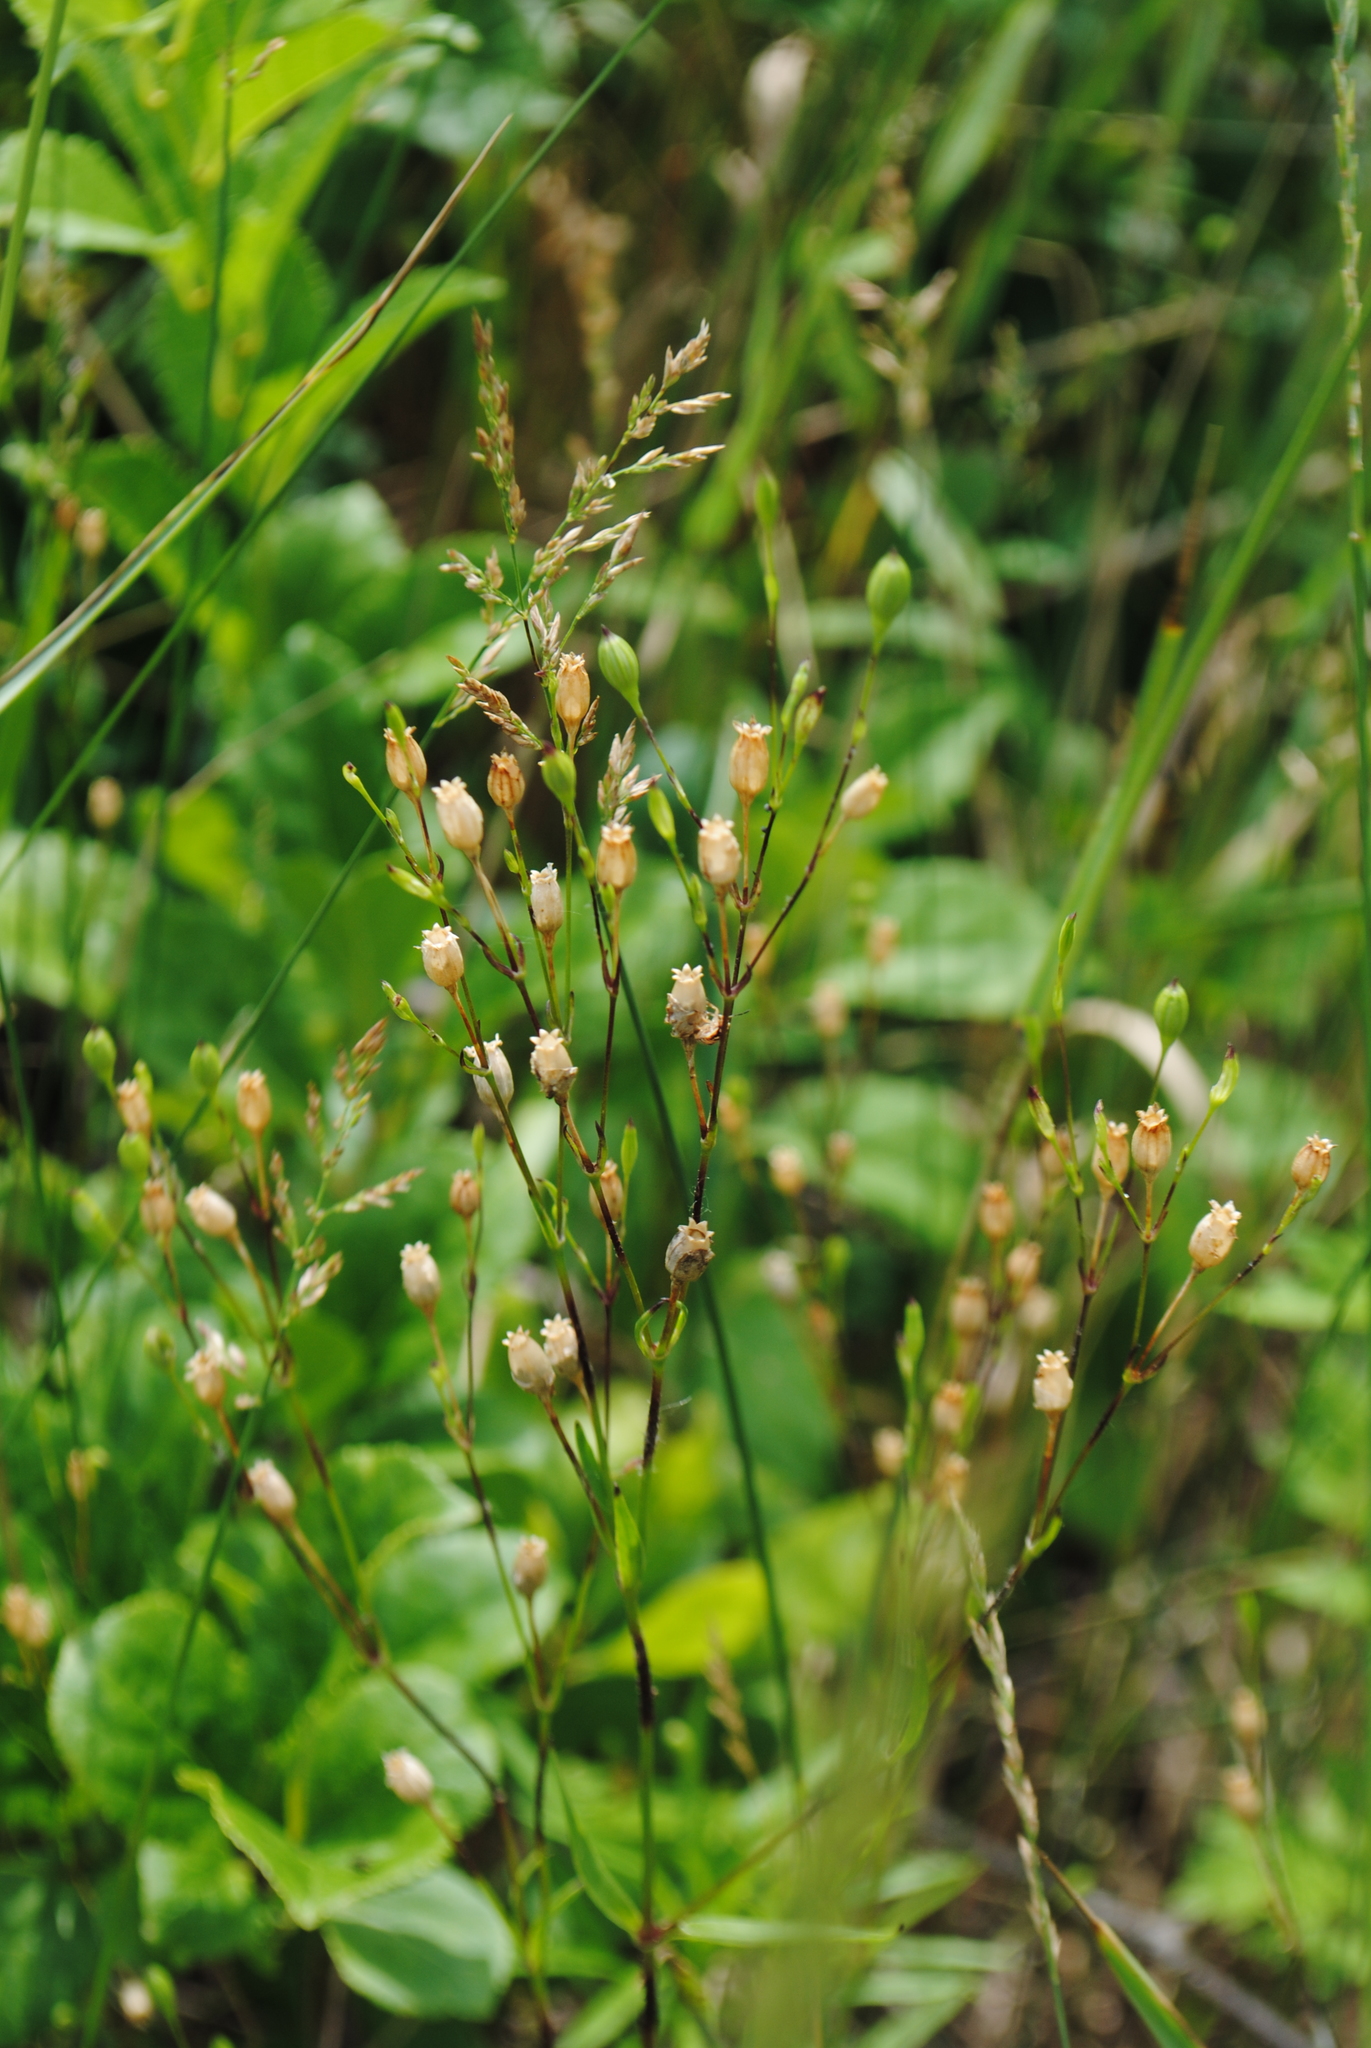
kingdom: Plantae
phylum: Tracheophyta
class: Magnoliopsida
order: Caryophyllales
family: Caryophyllaceae
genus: Silene
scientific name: Silene antirrhina
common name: Sleepy catchfly
